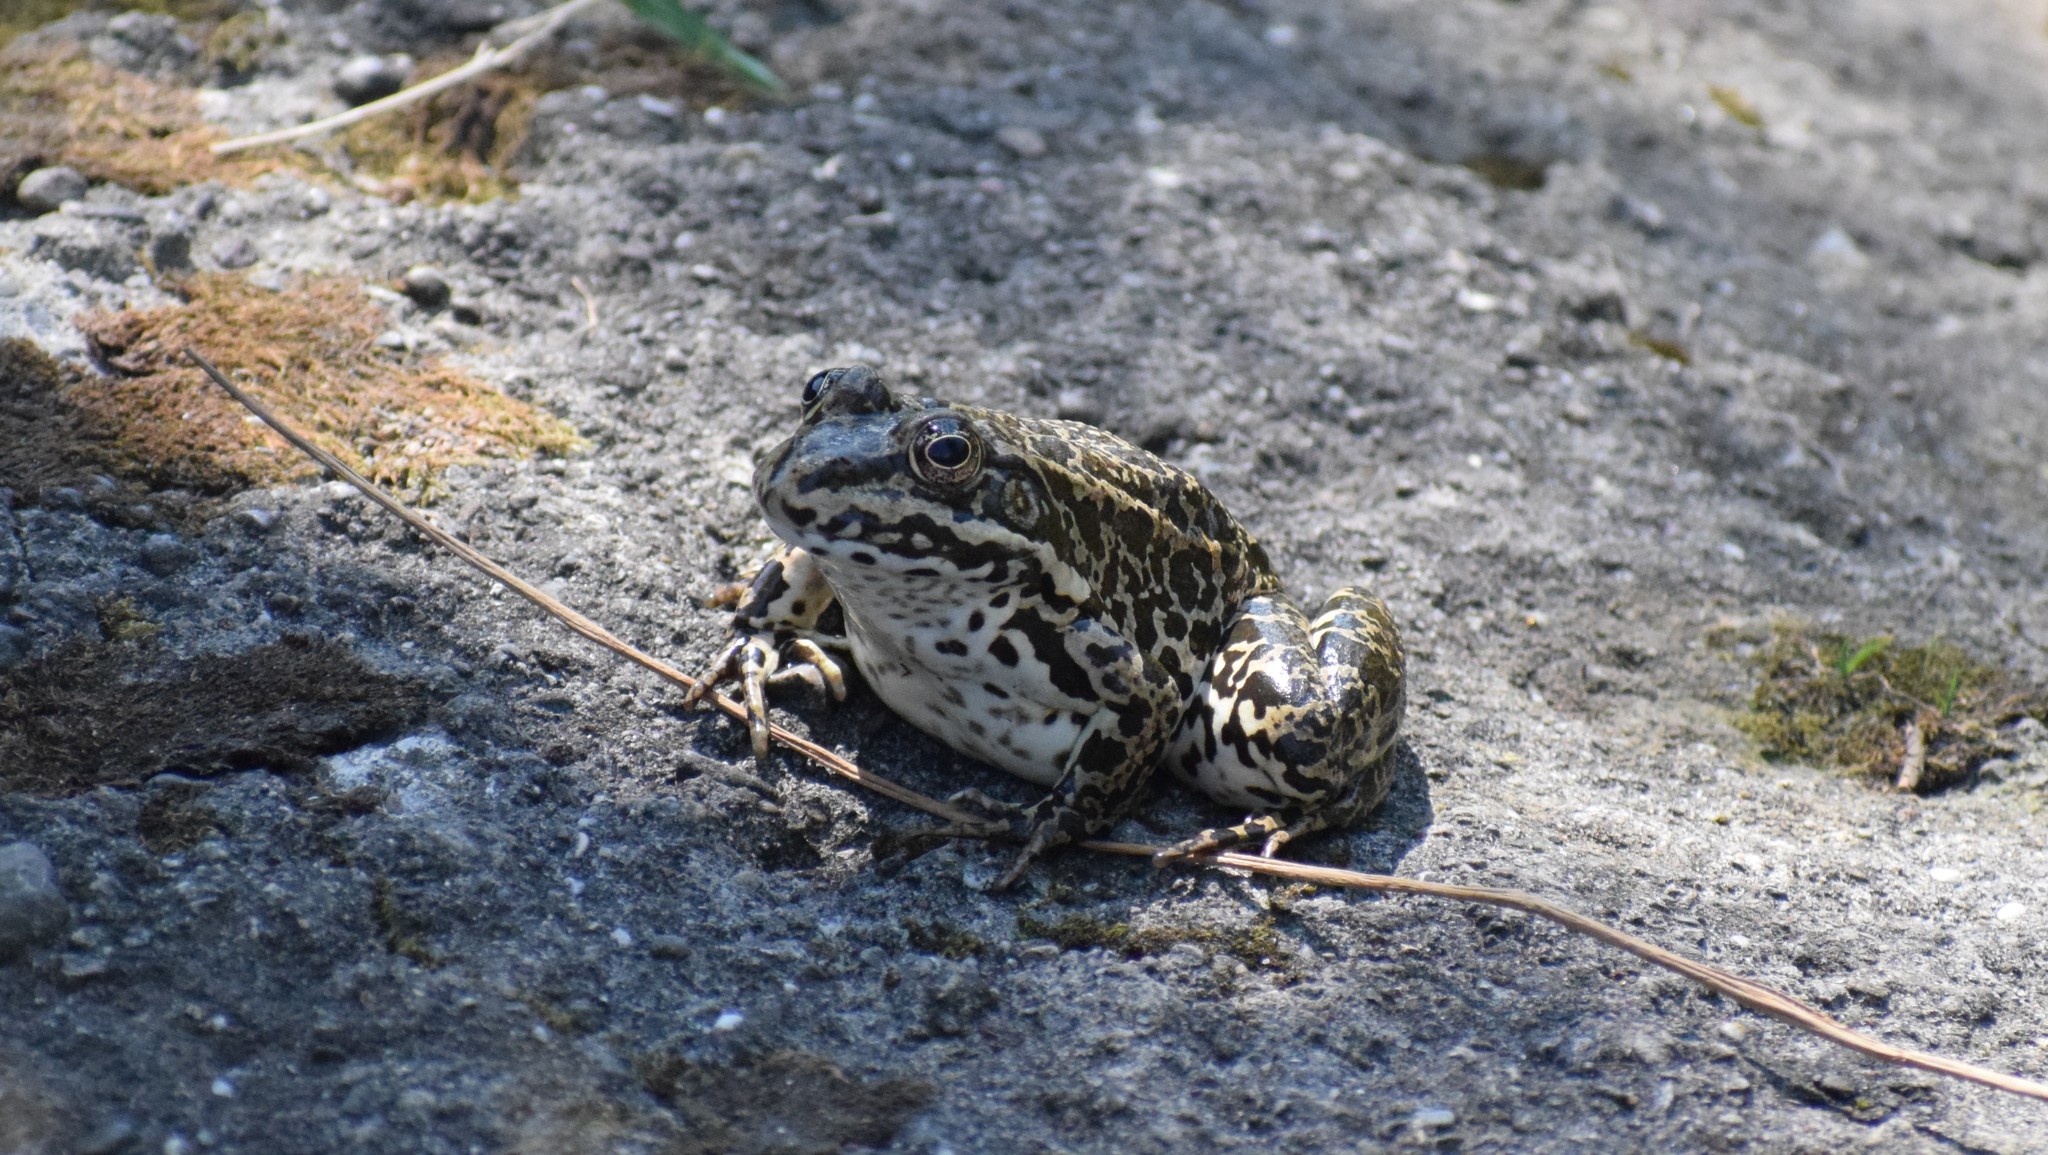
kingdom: Animalia
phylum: Chordata
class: Amphibia
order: Anura
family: Ranidae
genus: Pelophylax
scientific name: Pelophylax
